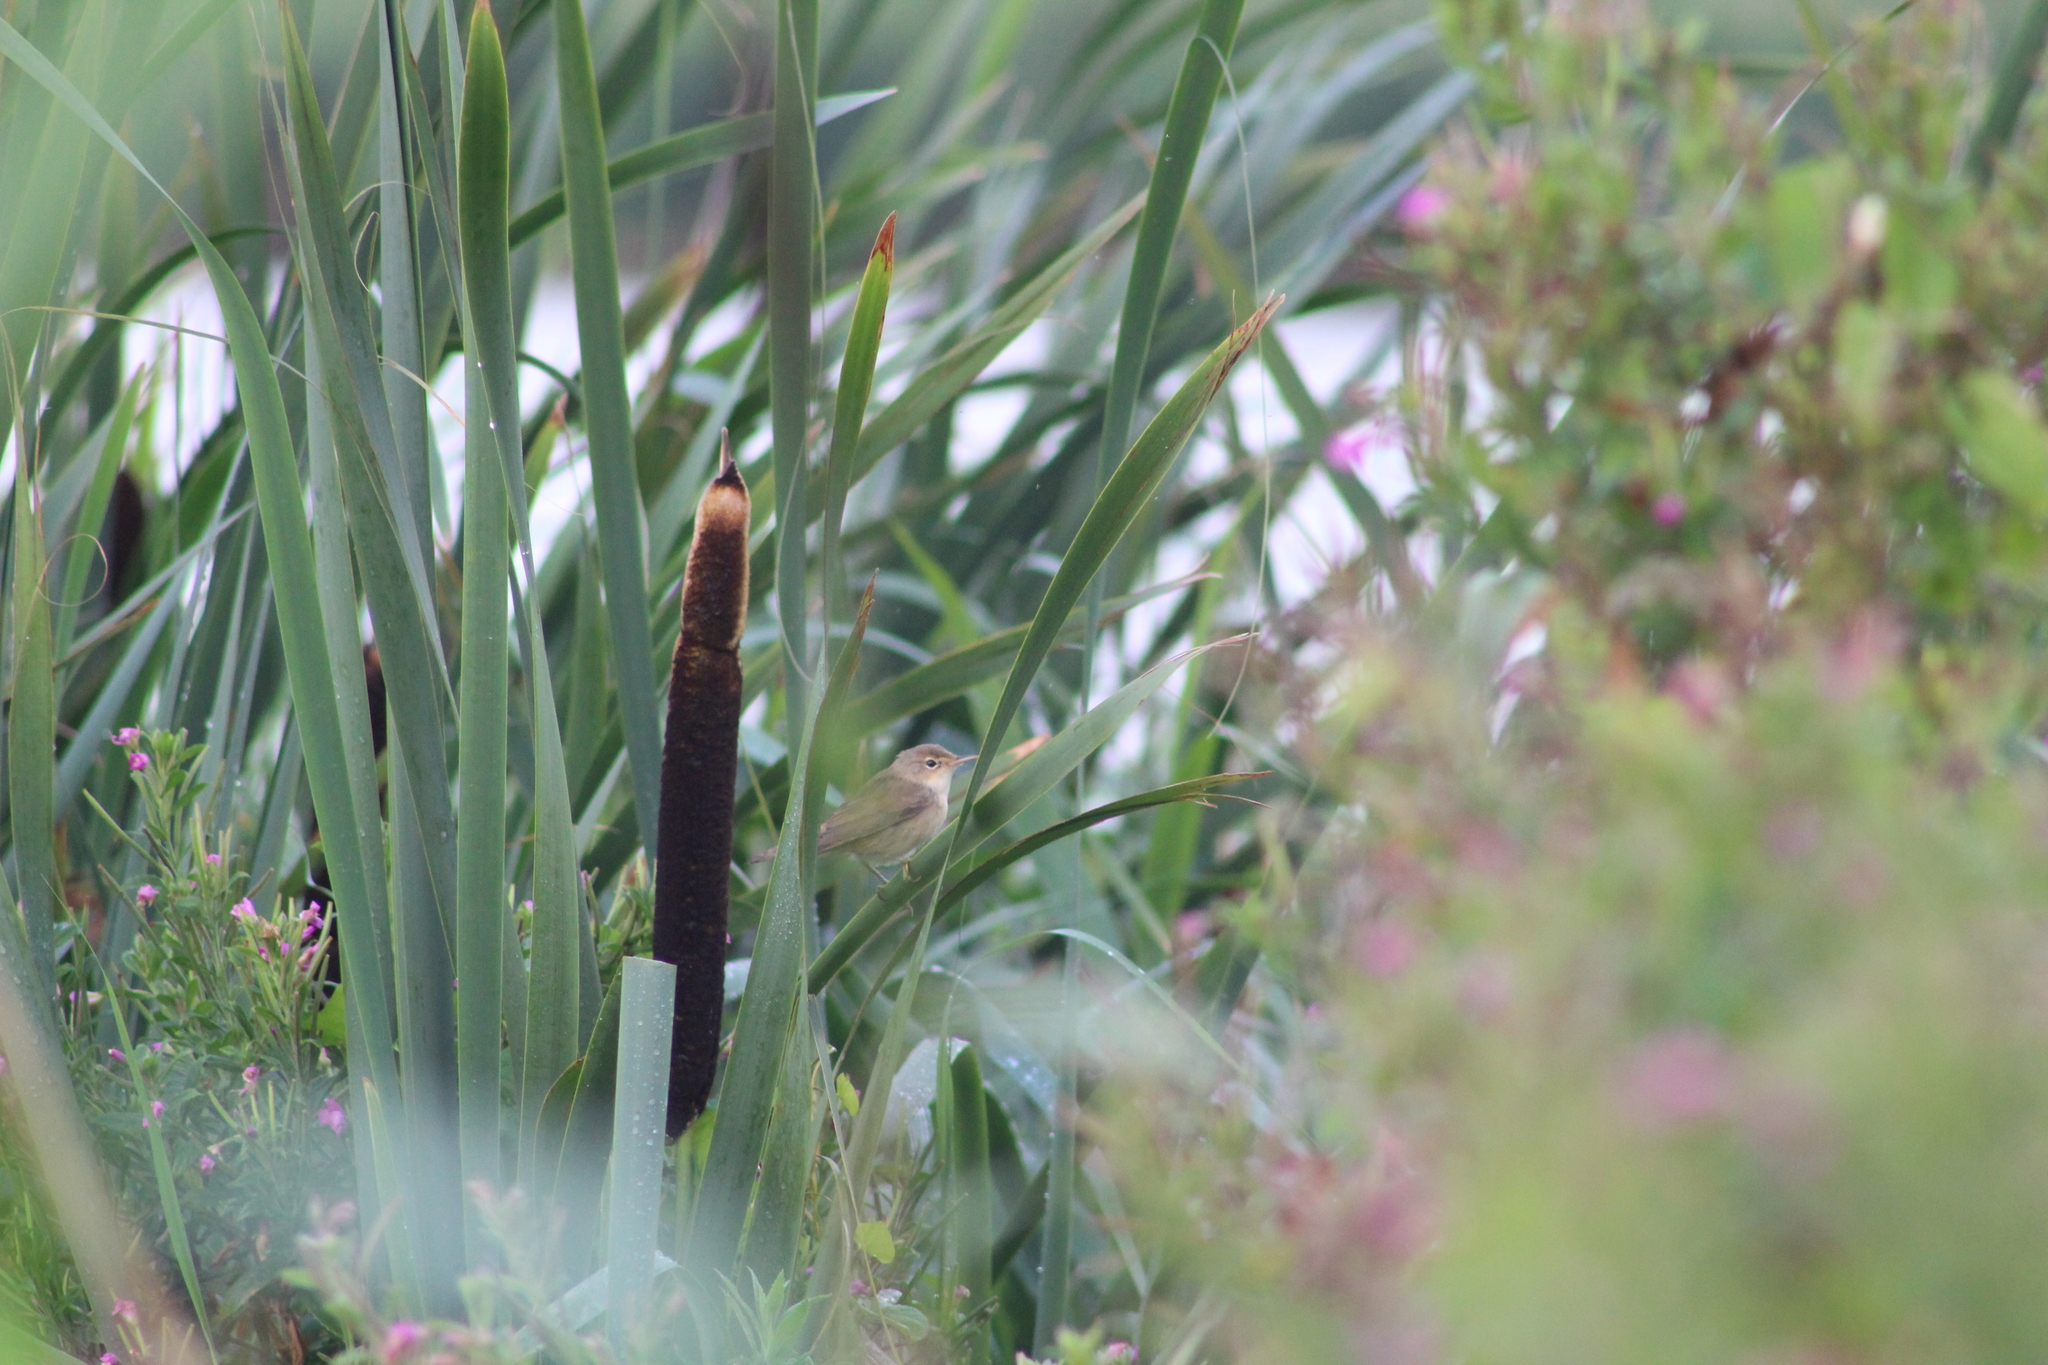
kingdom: Animalia
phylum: Chordata
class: Aves
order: Passeriformes
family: Acrocephalidae
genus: Acrocephalus
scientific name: Acrocephalus palustris
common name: Marsh warbler
